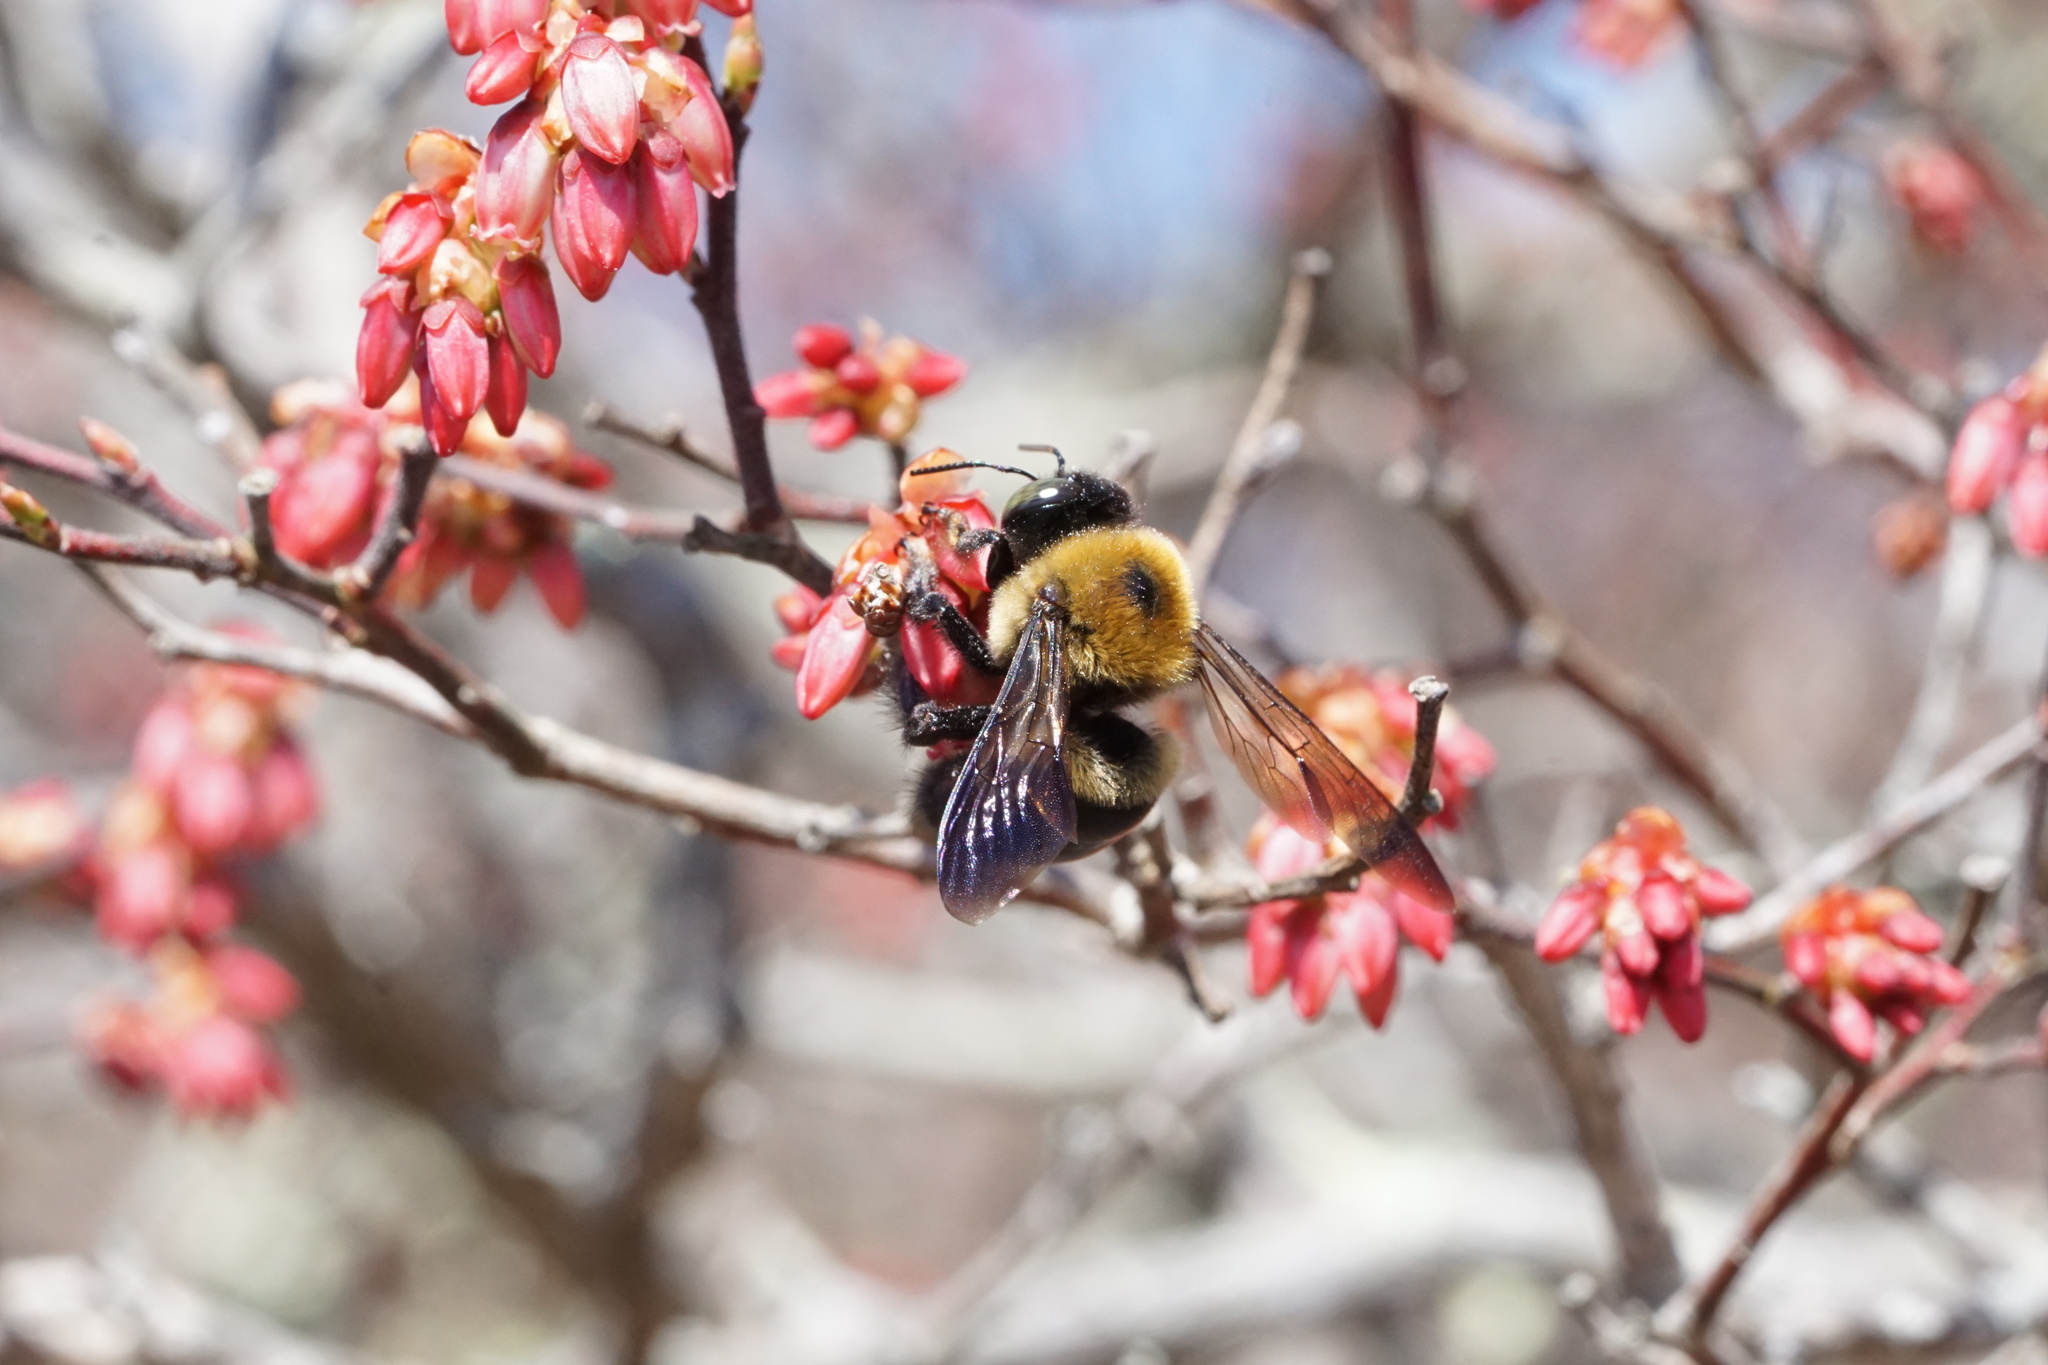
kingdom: Animalia
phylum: Arthropoda
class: Insecta
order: Hymenoptera
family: Apidae
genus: Xylocopa
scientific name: Xylocopa virginica
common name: Carpenter bee
